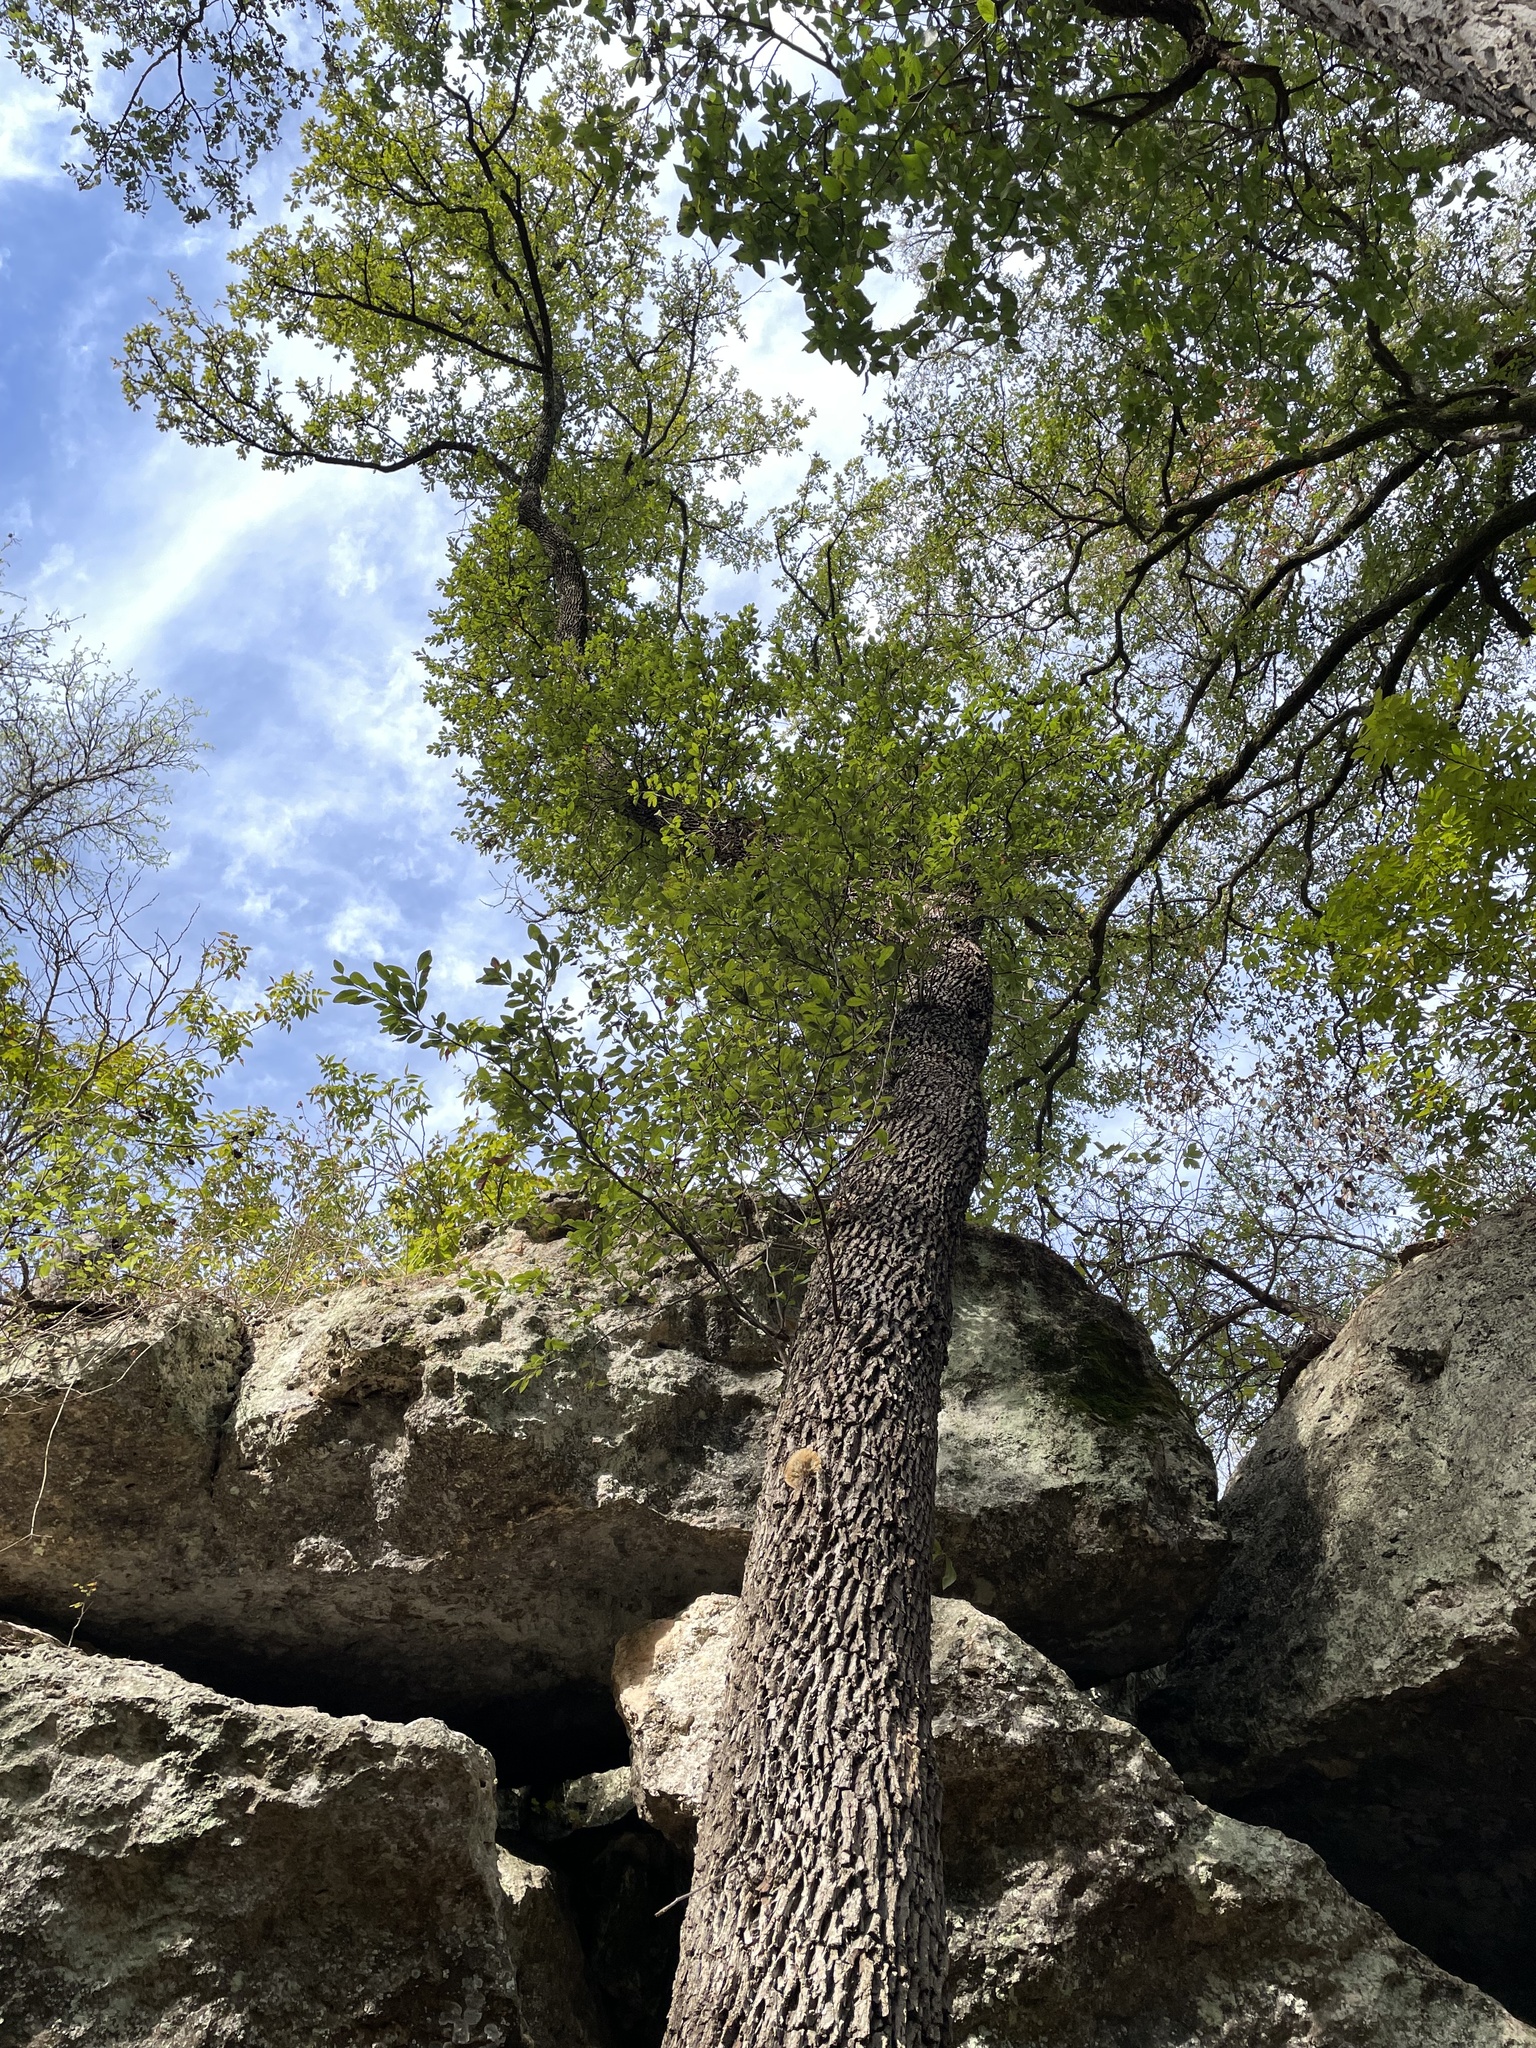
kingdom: Plantae
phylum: Tracheophyta
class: Magnoliopsida
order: Ericales
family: Sapotaceae
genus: Sideroxylon
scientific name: Sideroxylon lanuginosum
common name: Chittamwood
